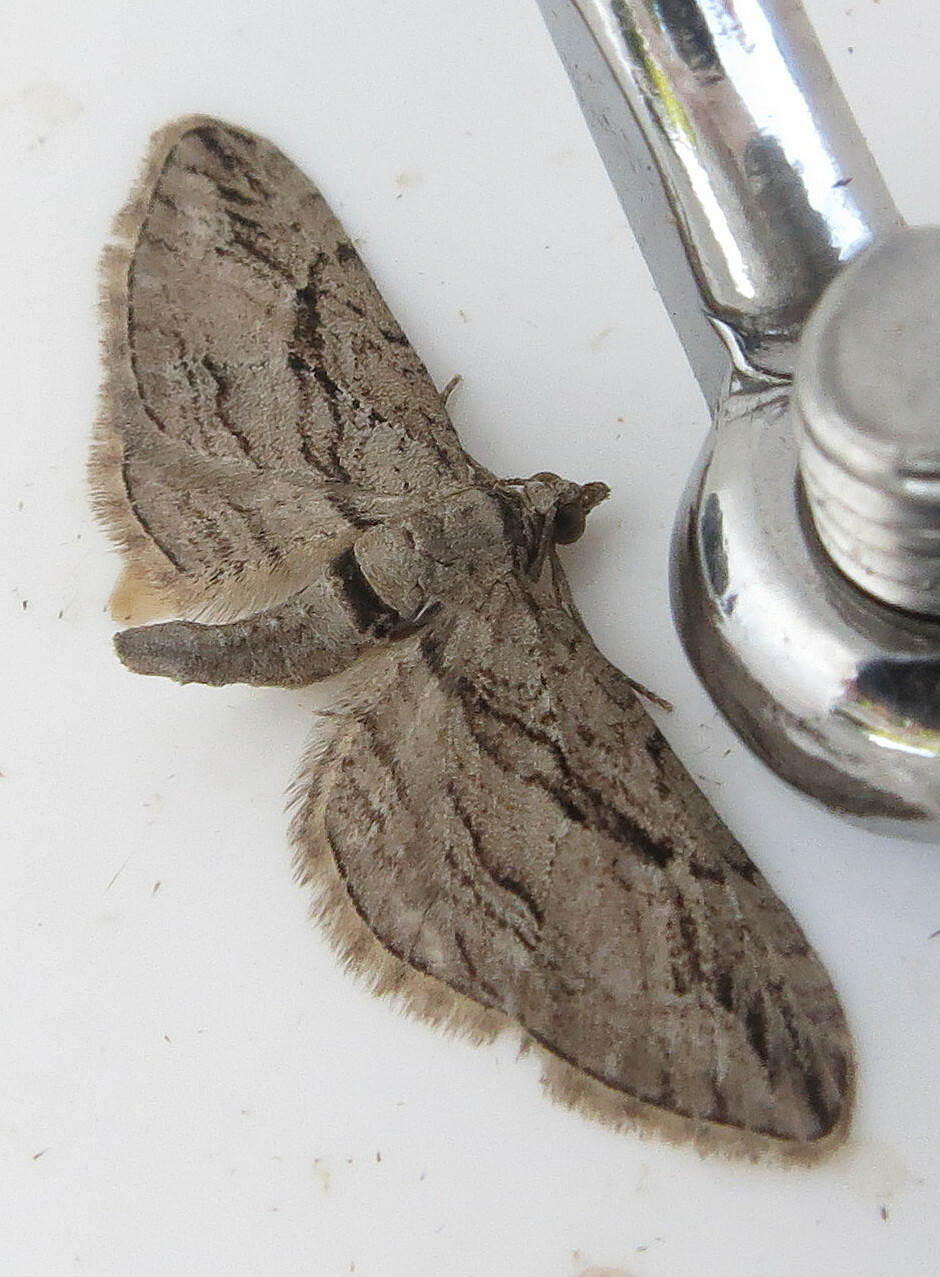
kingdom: Animalia
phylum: Arthropoda
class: Insecta
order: Lepidoptera
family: Geometridae
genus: Eupithecia
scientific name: Eupithecia phoeniceata
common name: Cypress pug
